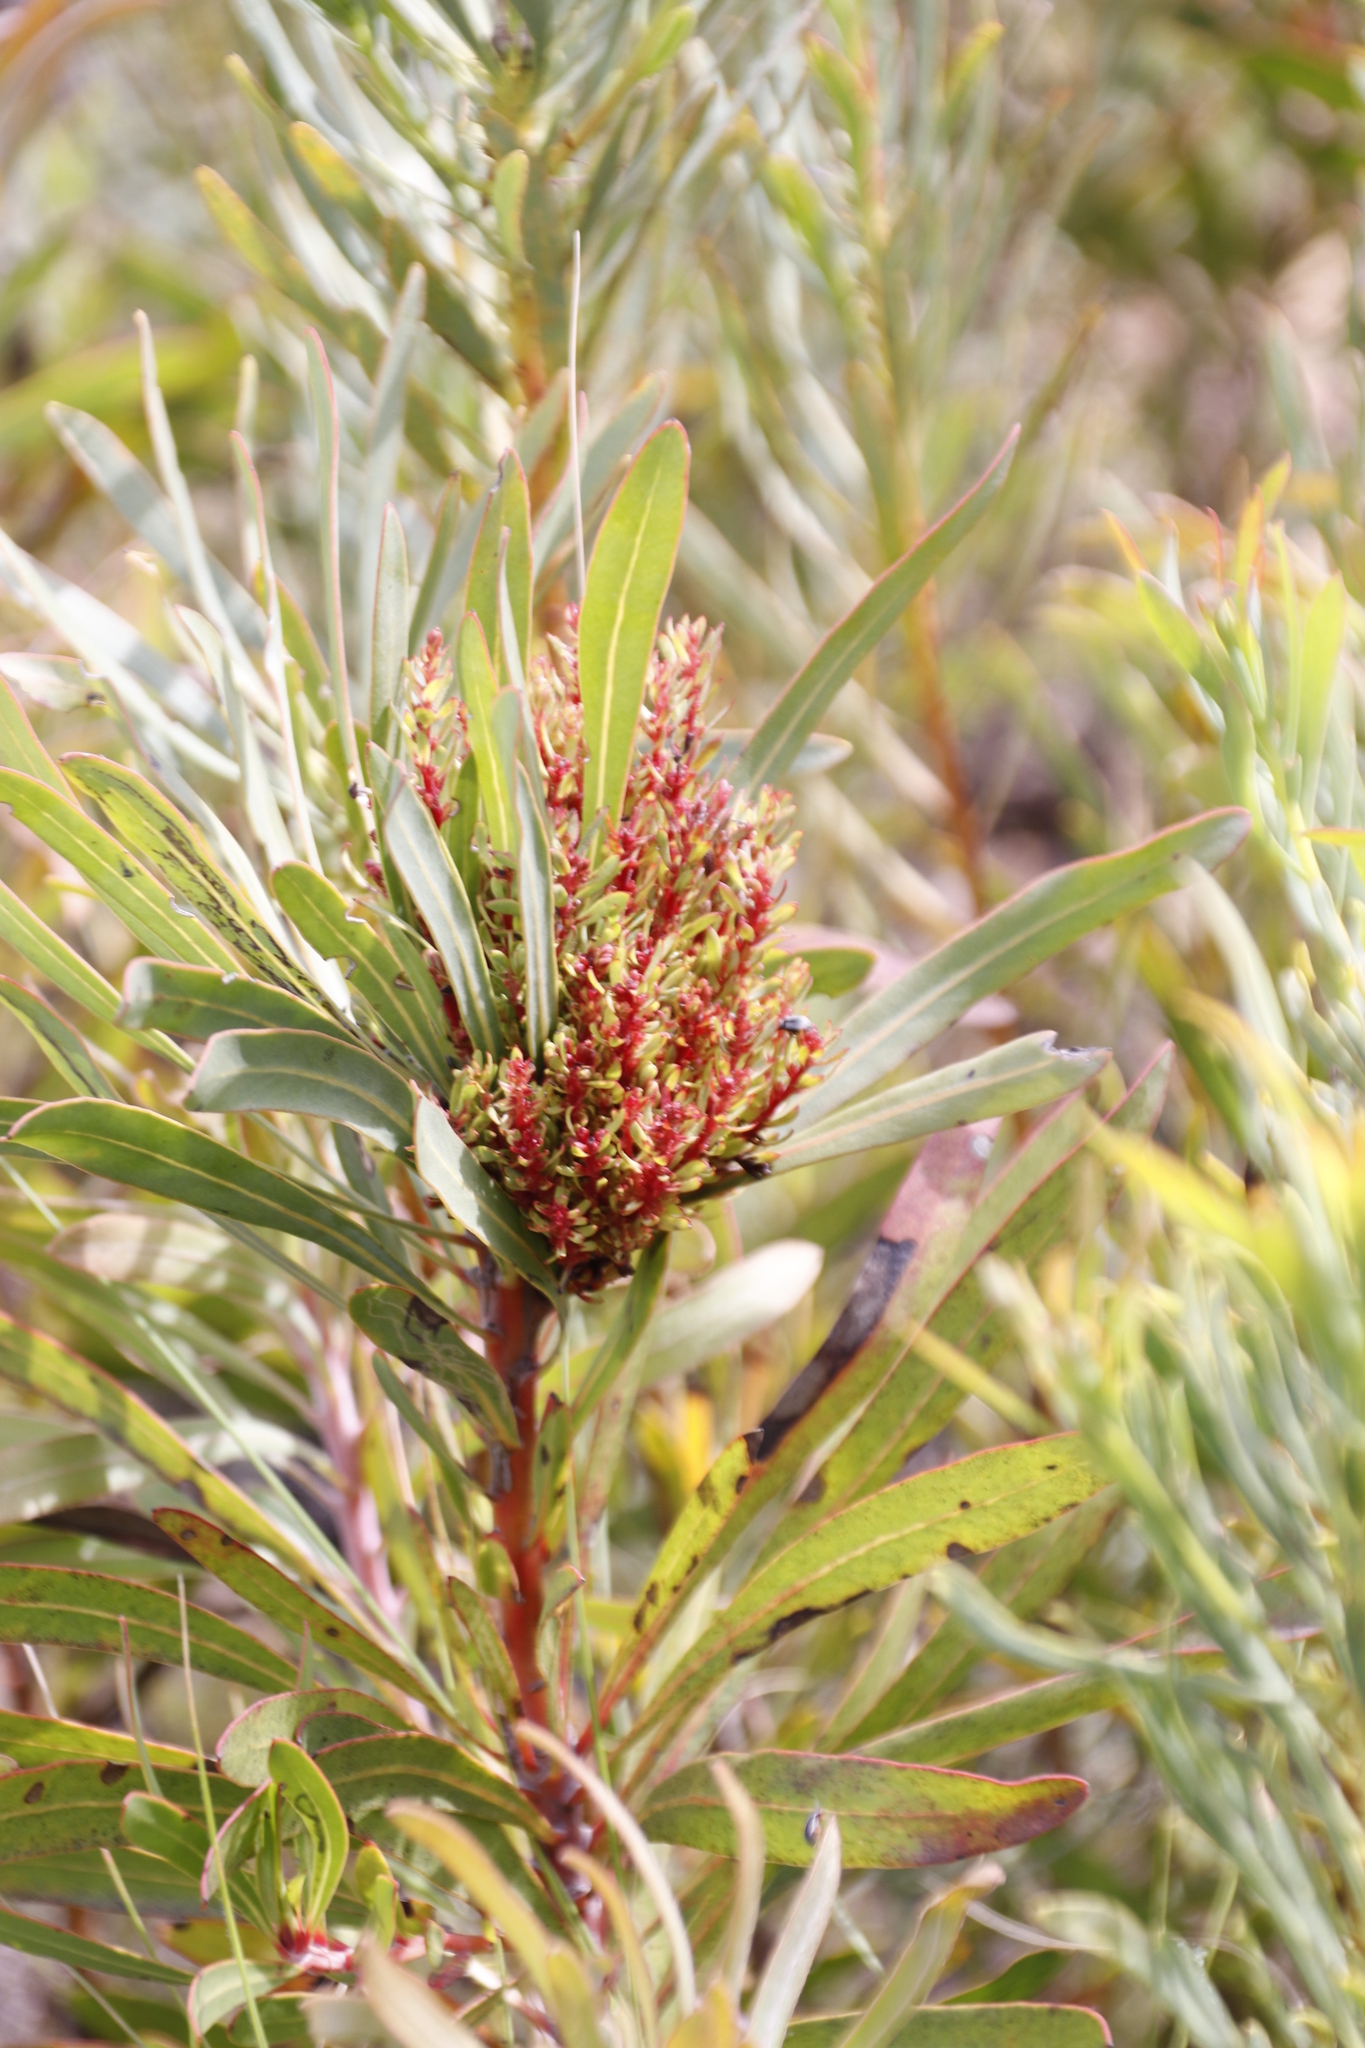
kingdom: Bacteria
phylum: Firmicutes
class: Bacilli
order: Acholeplasmatales
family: Acholeplasmataceae
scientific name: Acholeplasmataceae
